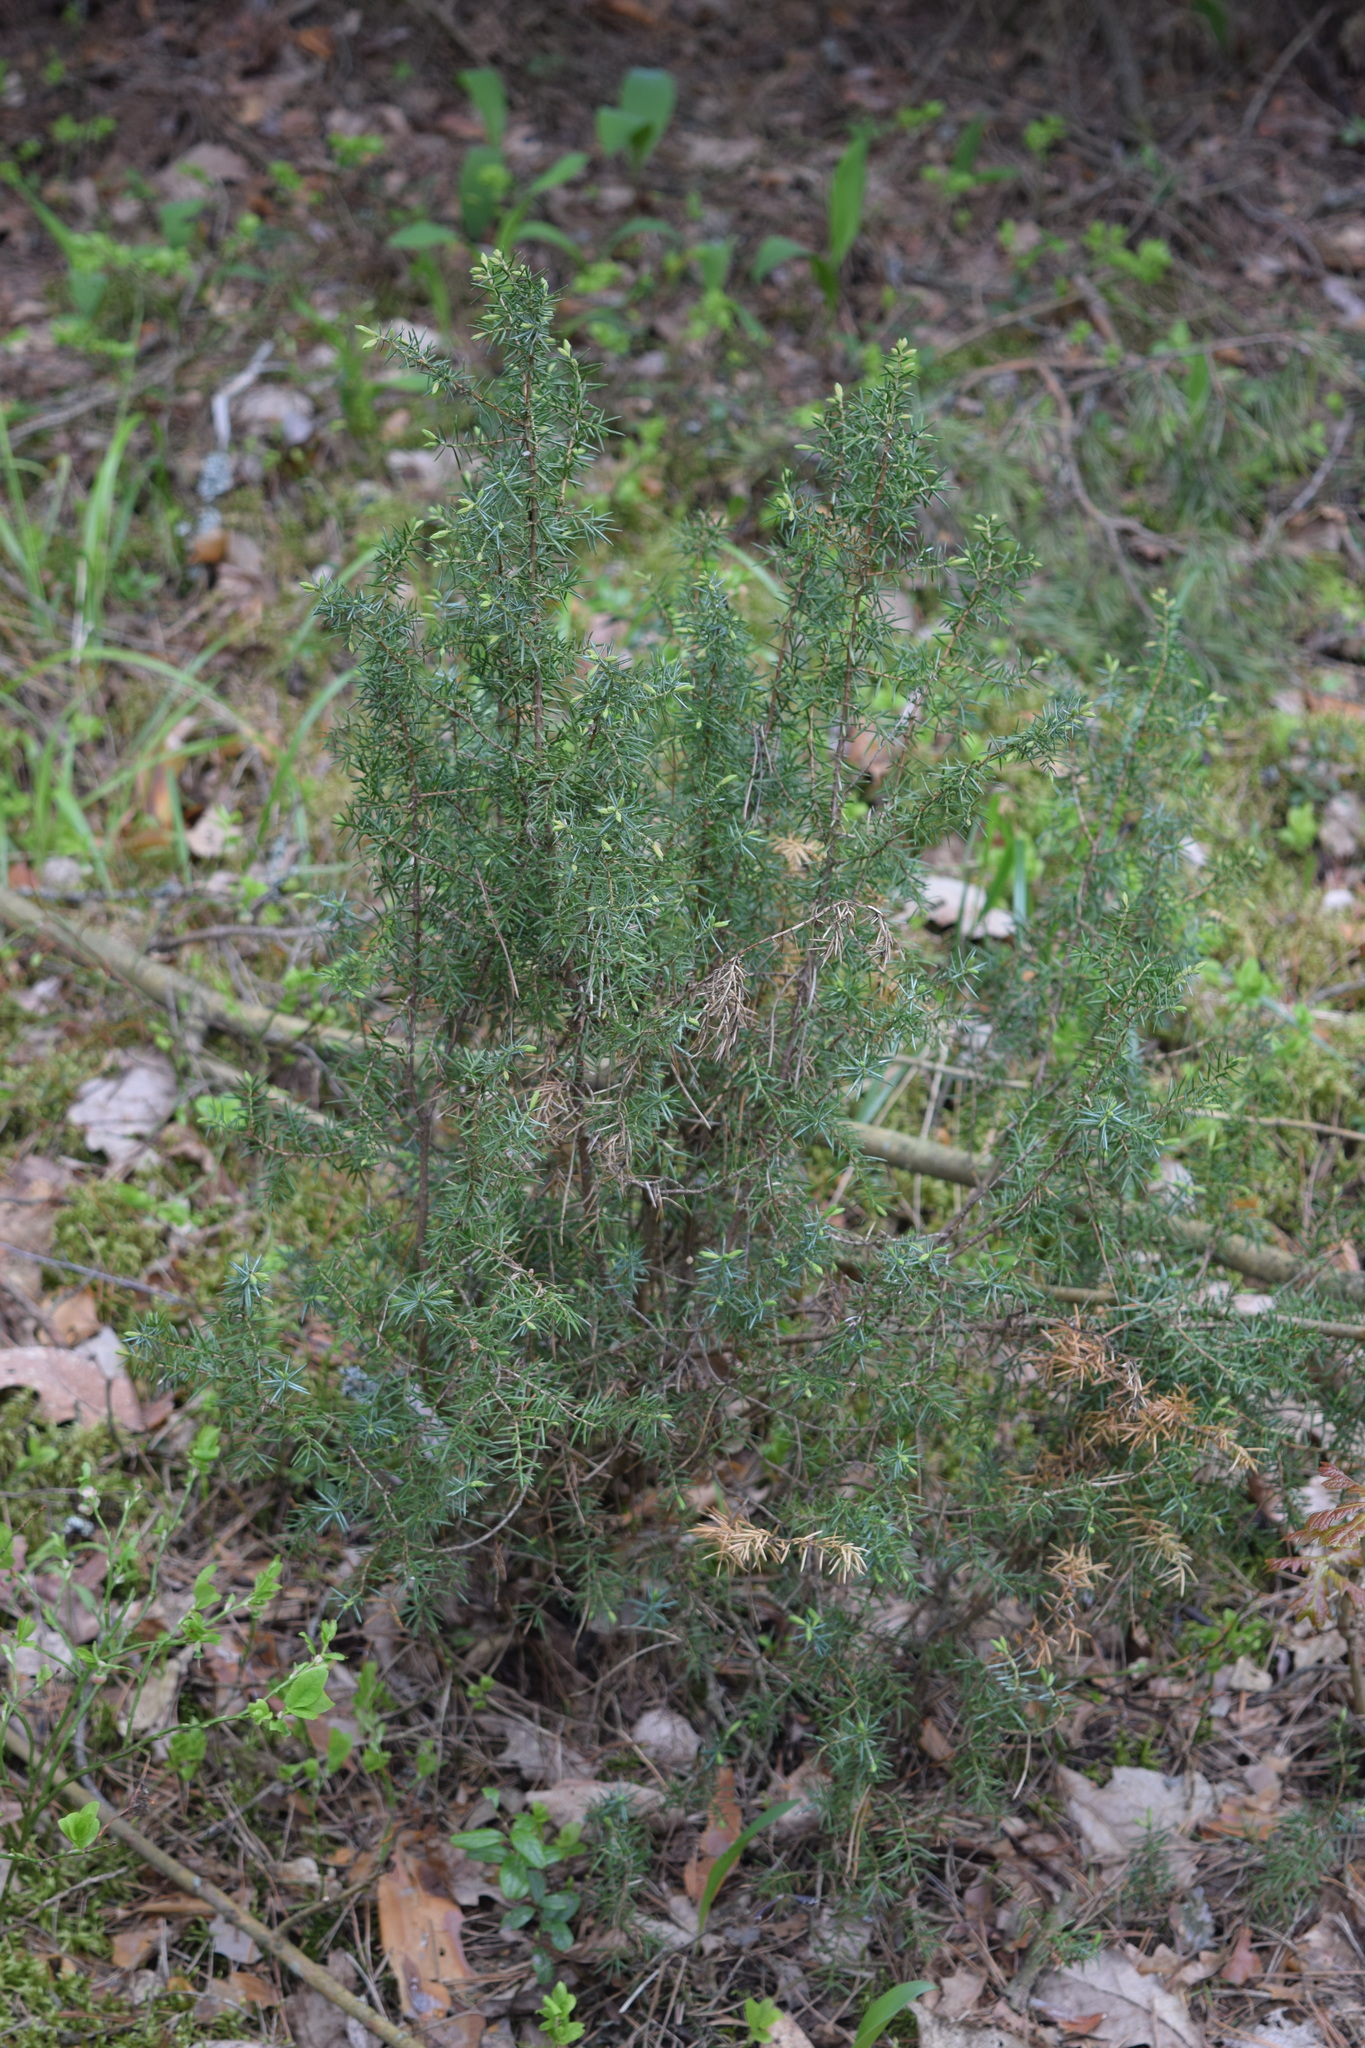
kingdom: Plantae
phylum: Tracheophyta
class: Pinopsida
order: Pinales
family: Cupressaceae
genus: Juniperus
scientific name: Juniperus communis
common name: Common juniper
